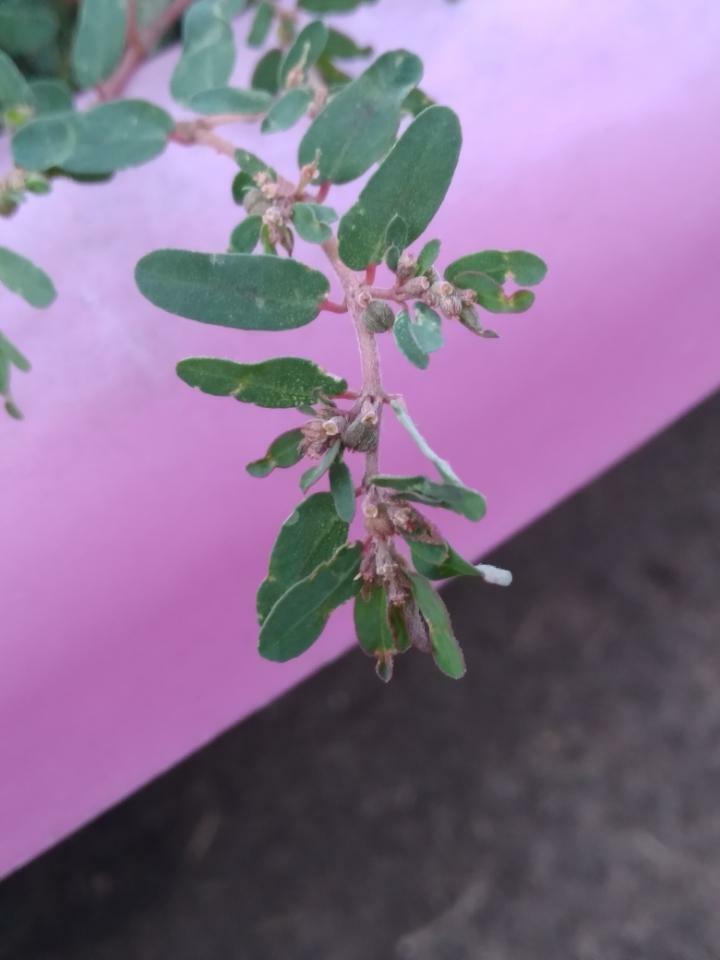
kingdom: Plantae
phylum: Tracheophyta
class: Magnoliopsida
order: Malpighiales
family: Euphorbiaceae
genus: Euphorbia
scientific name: Euphorbia maculata
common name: Spotted spurge
